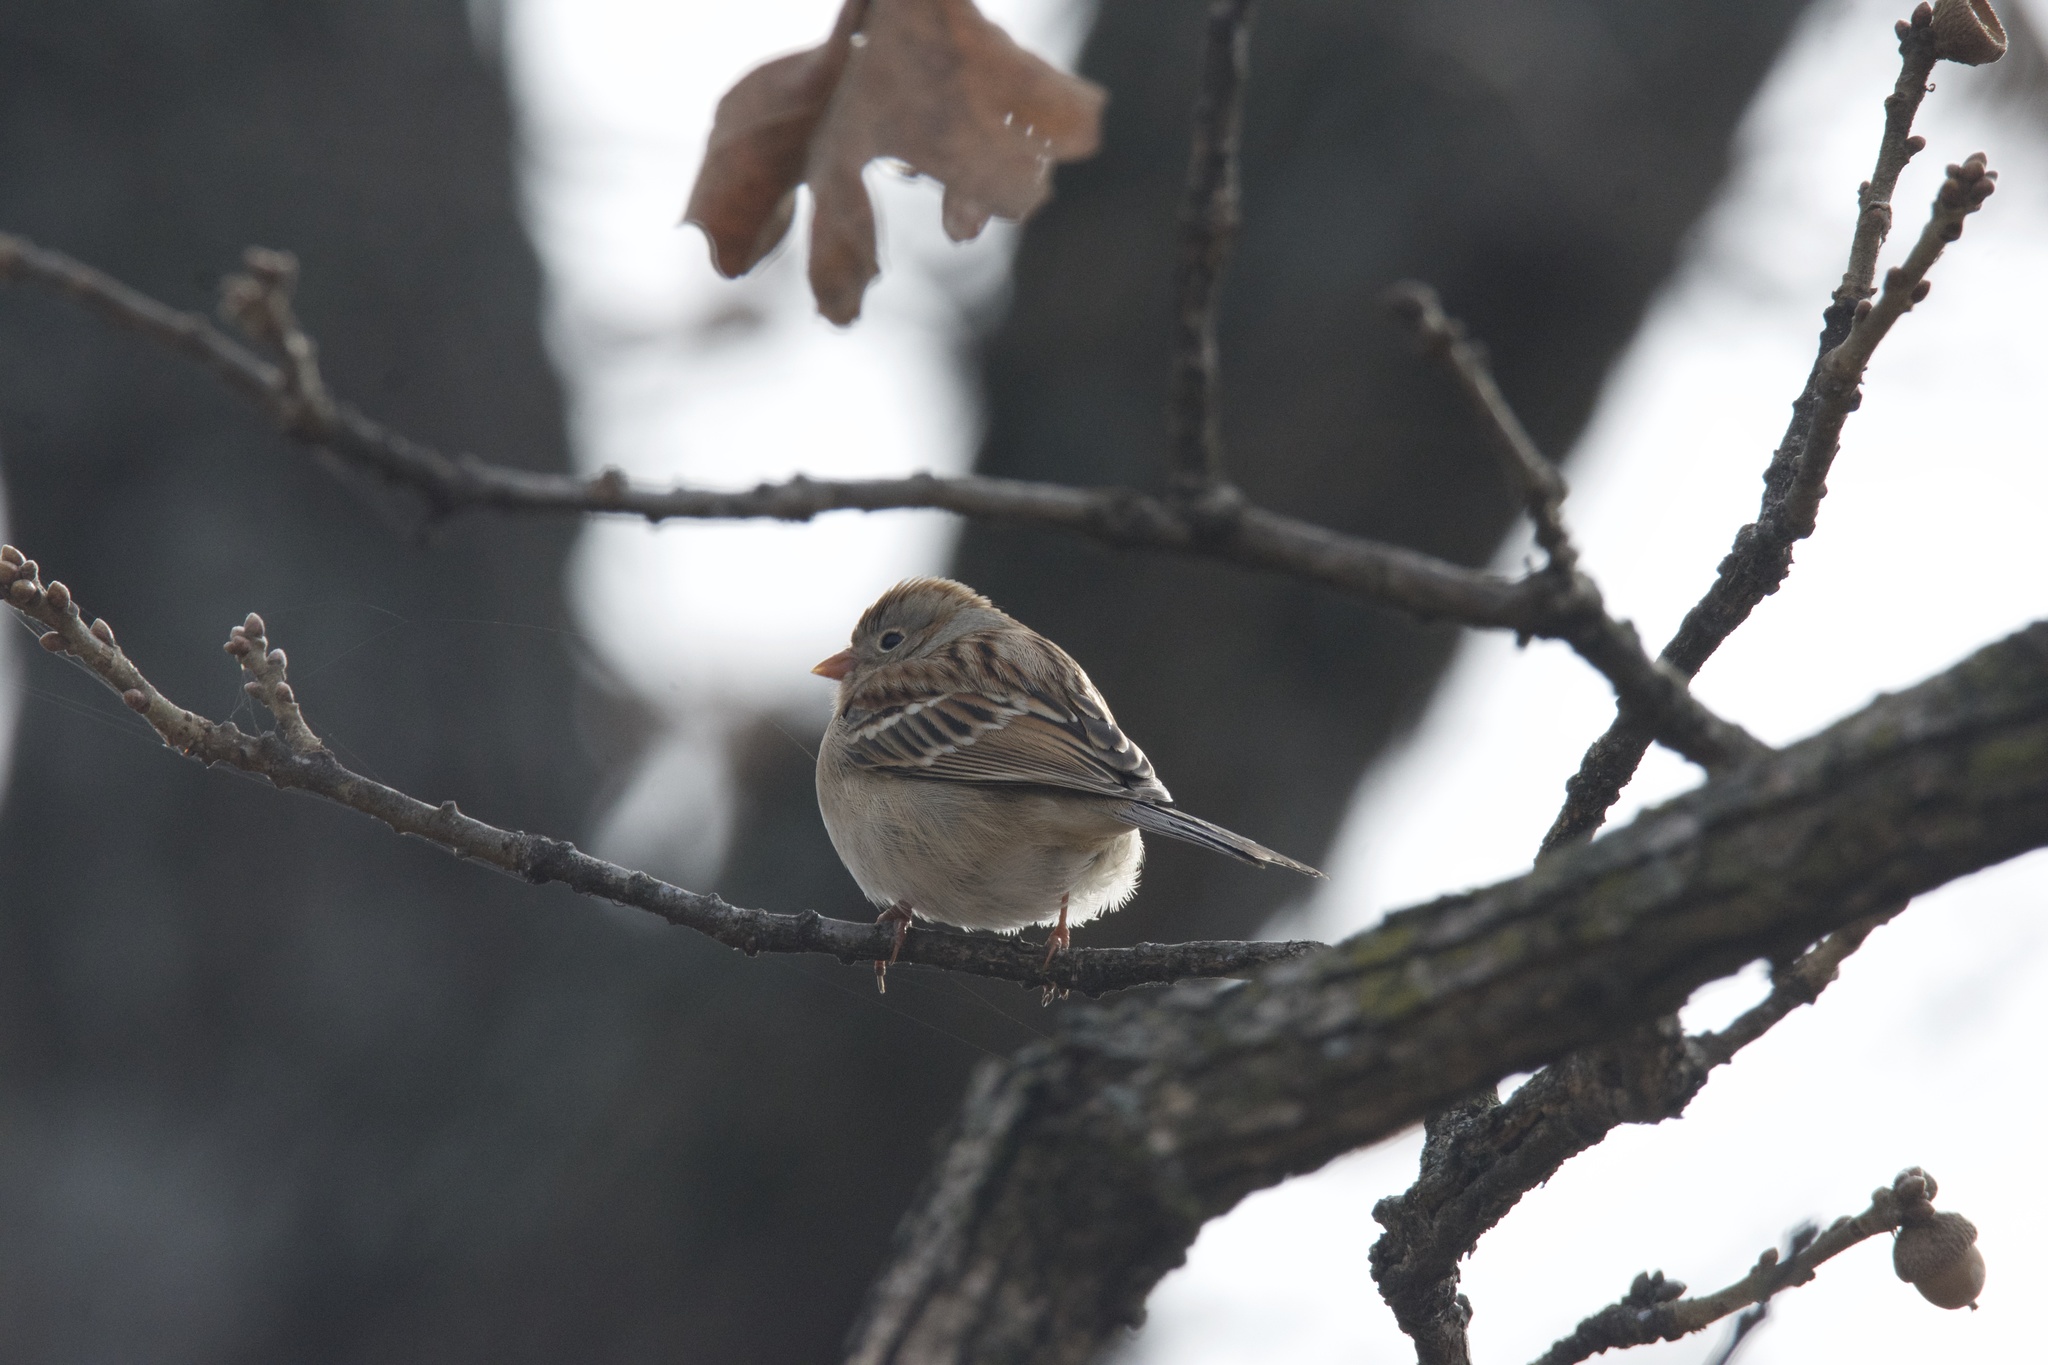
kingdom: Animalia
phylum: Chordata
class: Aves
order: Passeriformes
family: Passerellidae
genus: Spizella
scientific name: Spizella pusilla
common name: Field sparrow
